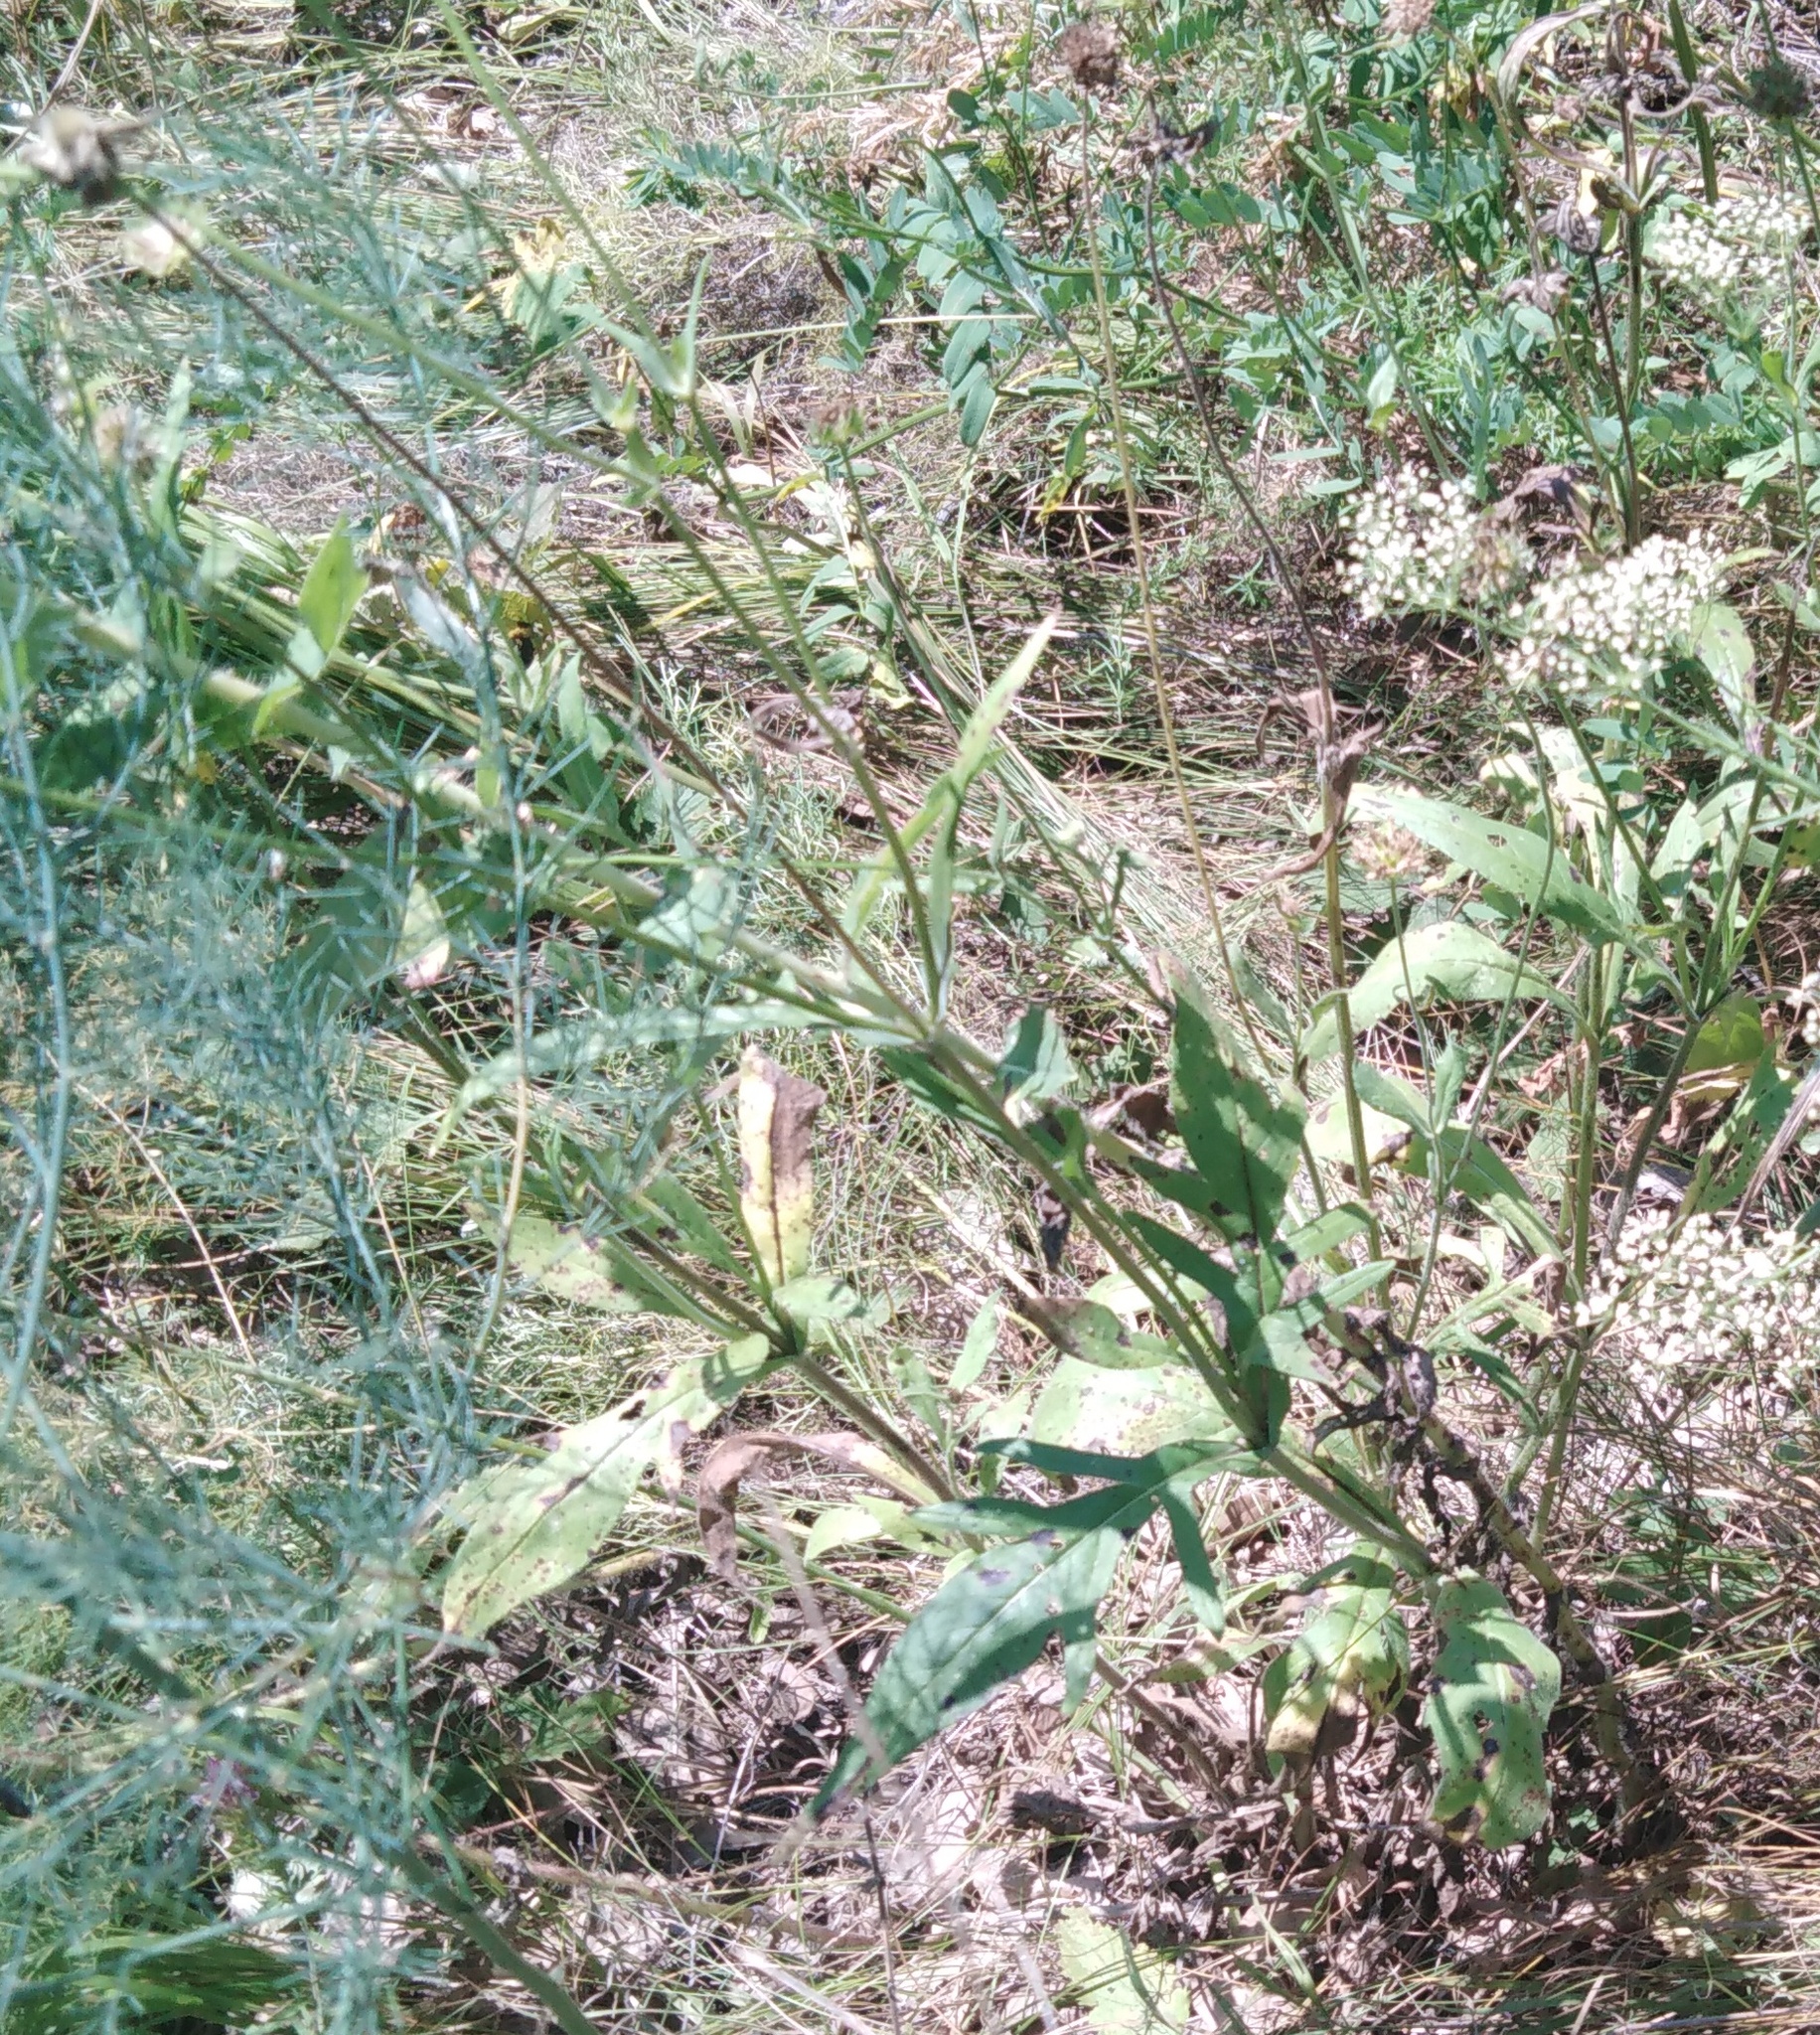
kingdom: Plantae
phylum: Tracheophyta
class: Magnoliopsida
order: Dipsacales
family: Caprifoliaceae
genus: Knautia
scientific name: Knautia arvensis
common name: Field scabiosa
